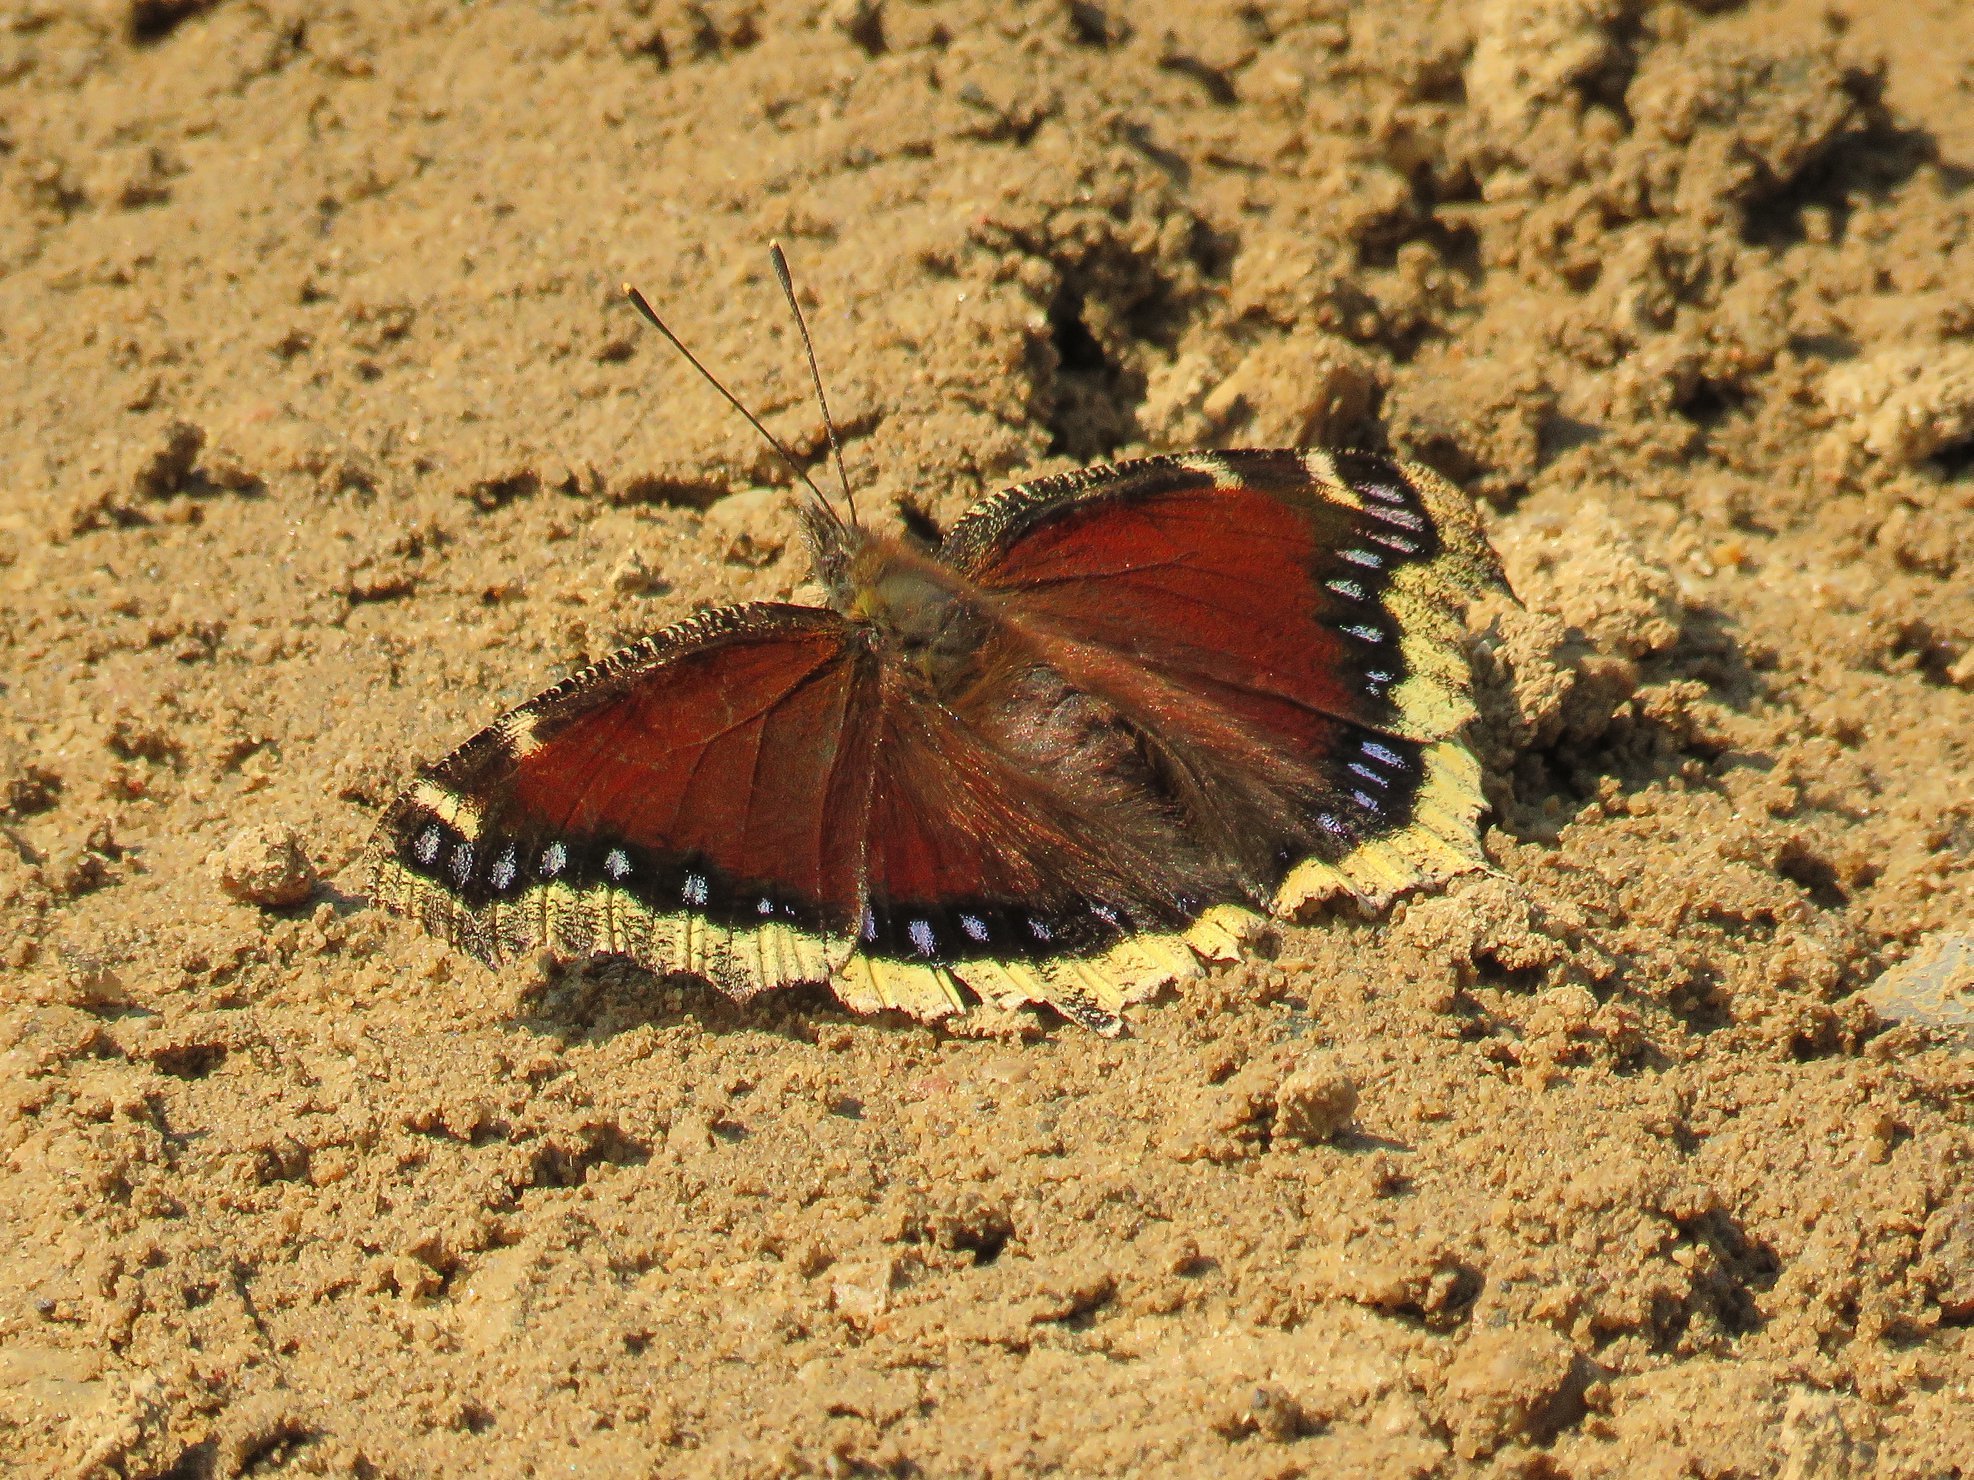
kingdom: Animalia
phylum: Arthropoda
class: Insecta
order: Lepidoptera
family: Nymphalidae
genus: Nymphalis
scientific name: Nymphalis antiopa
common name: Camberwell beauty
